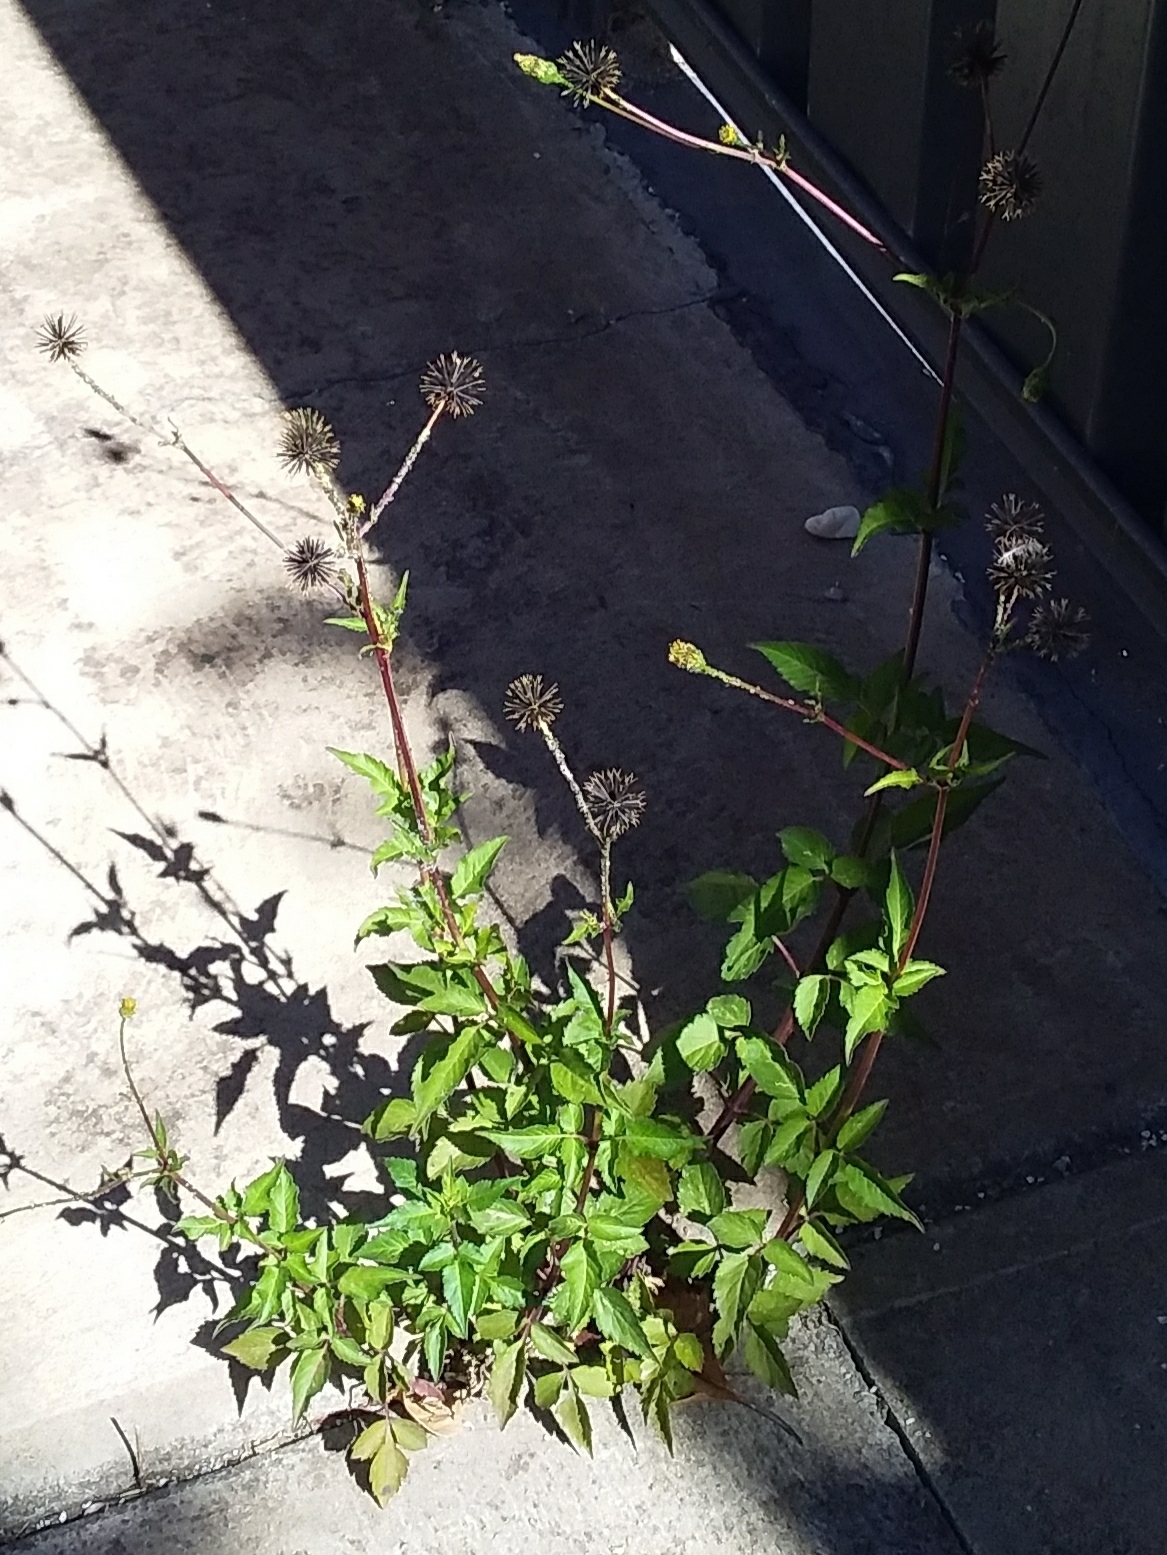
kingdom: Plantae
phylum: Tracheophyta
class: Magnoliopsida
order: Asterales
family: Asteraceae
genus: Bidens
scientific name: Bidens pilosa
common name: Black-jack
